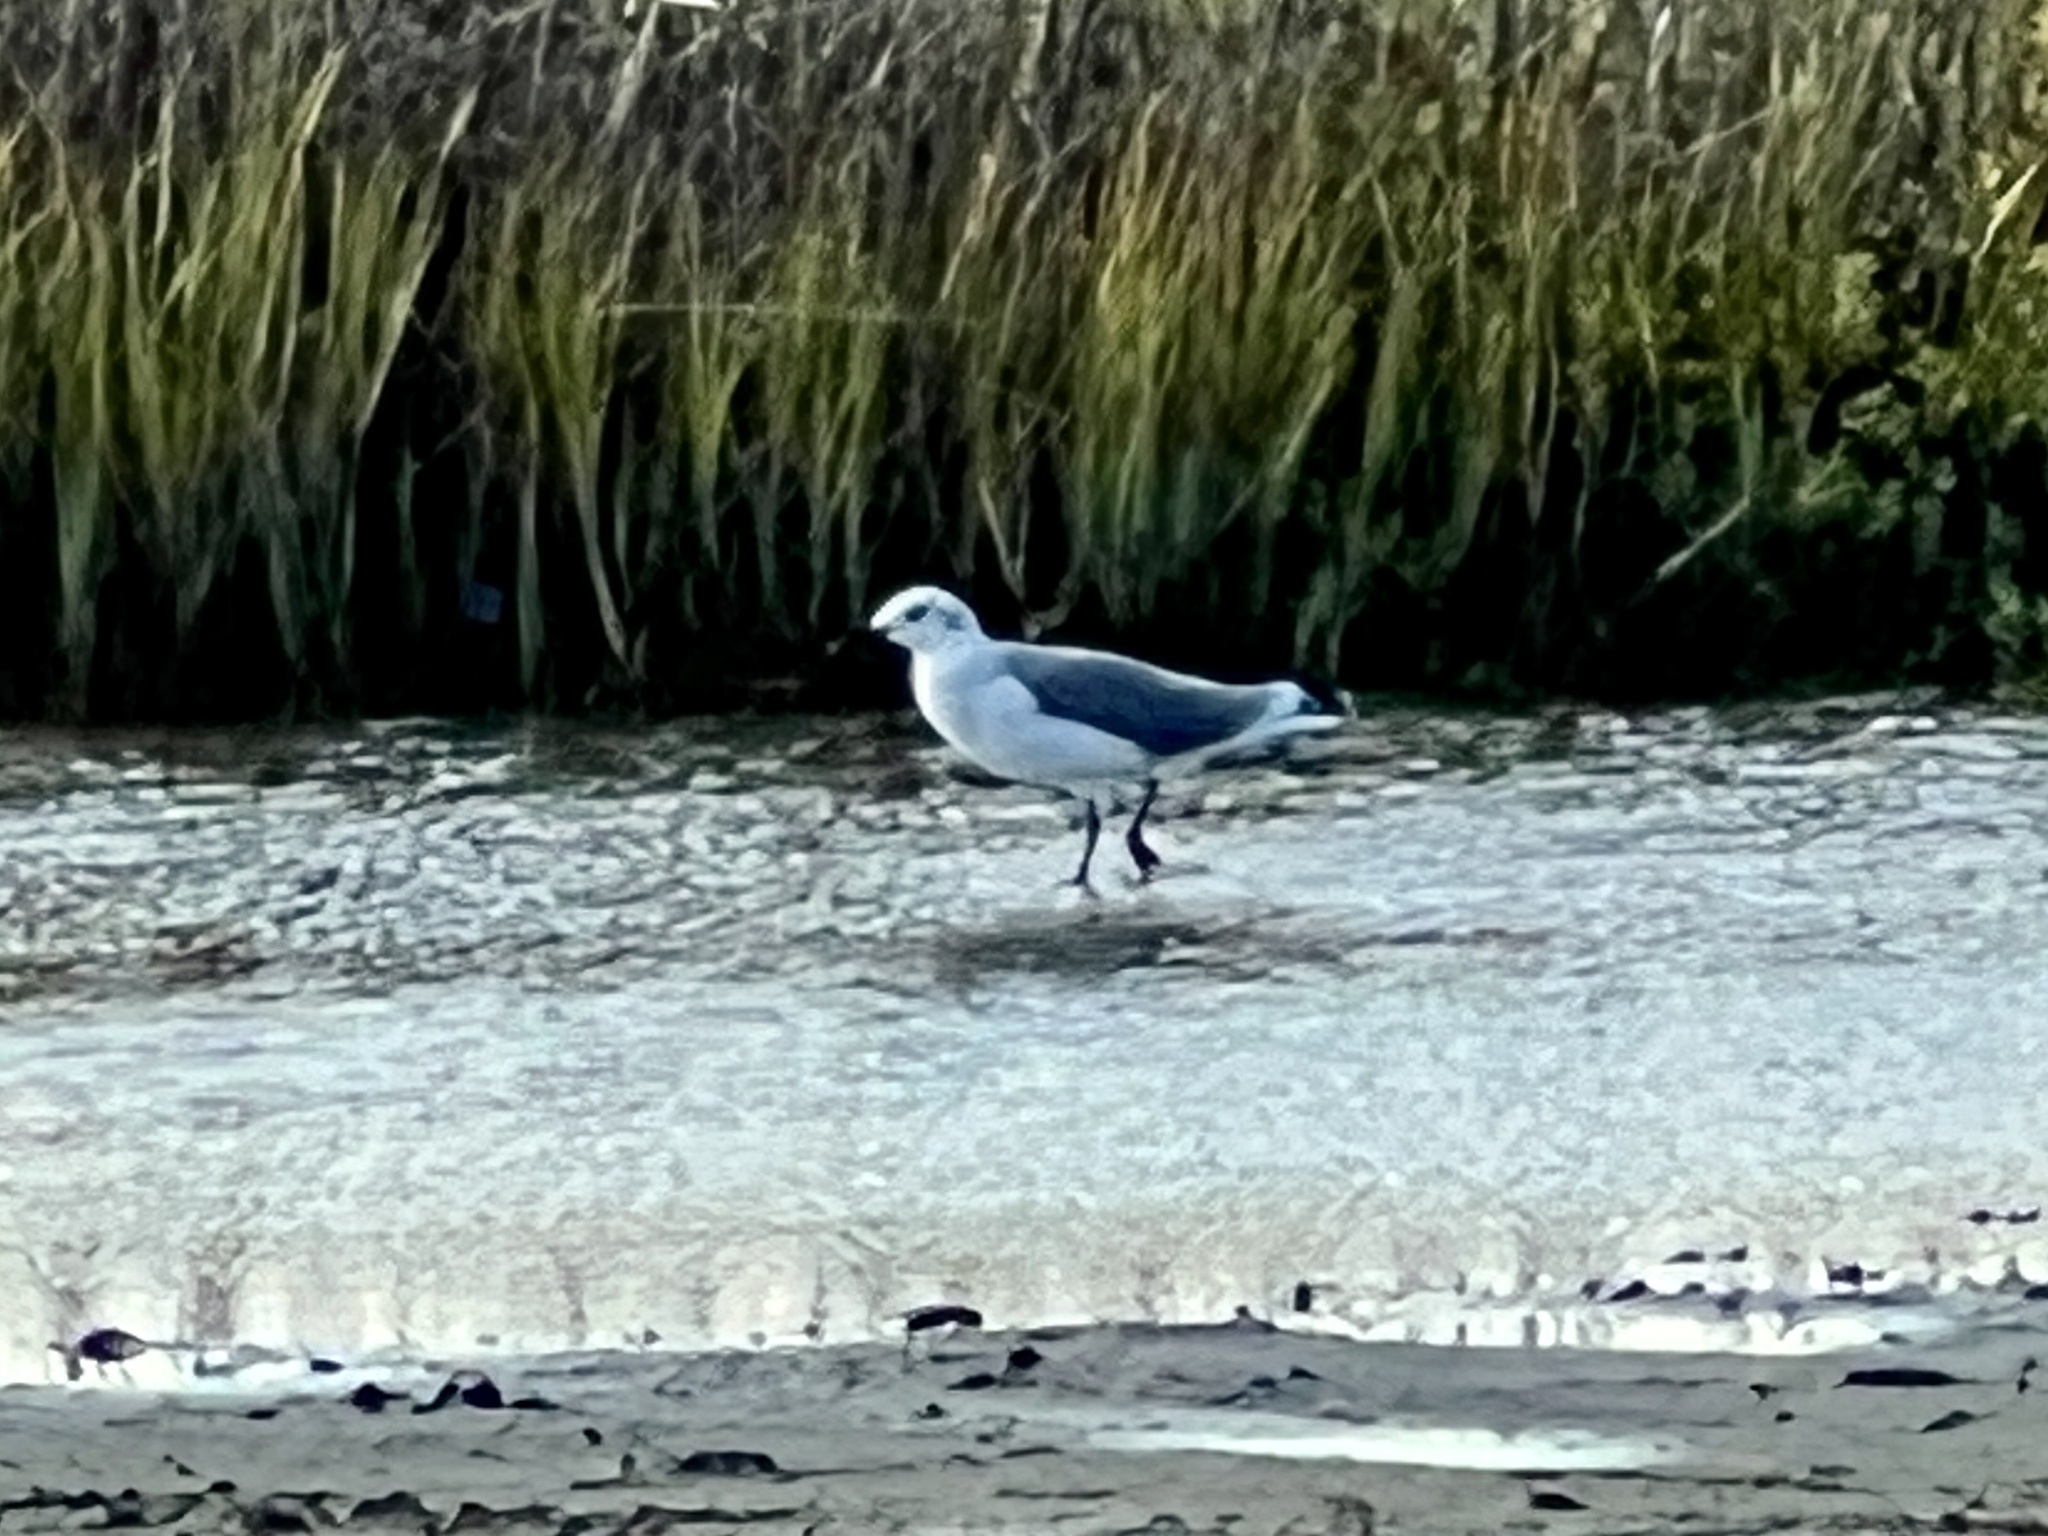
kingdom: Animalia
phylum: Chordata
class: Aves
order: Charadriiformes
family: Laridae
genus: Leucophaeus
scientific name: Leucophaeus atricilla
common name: Laughing gull
